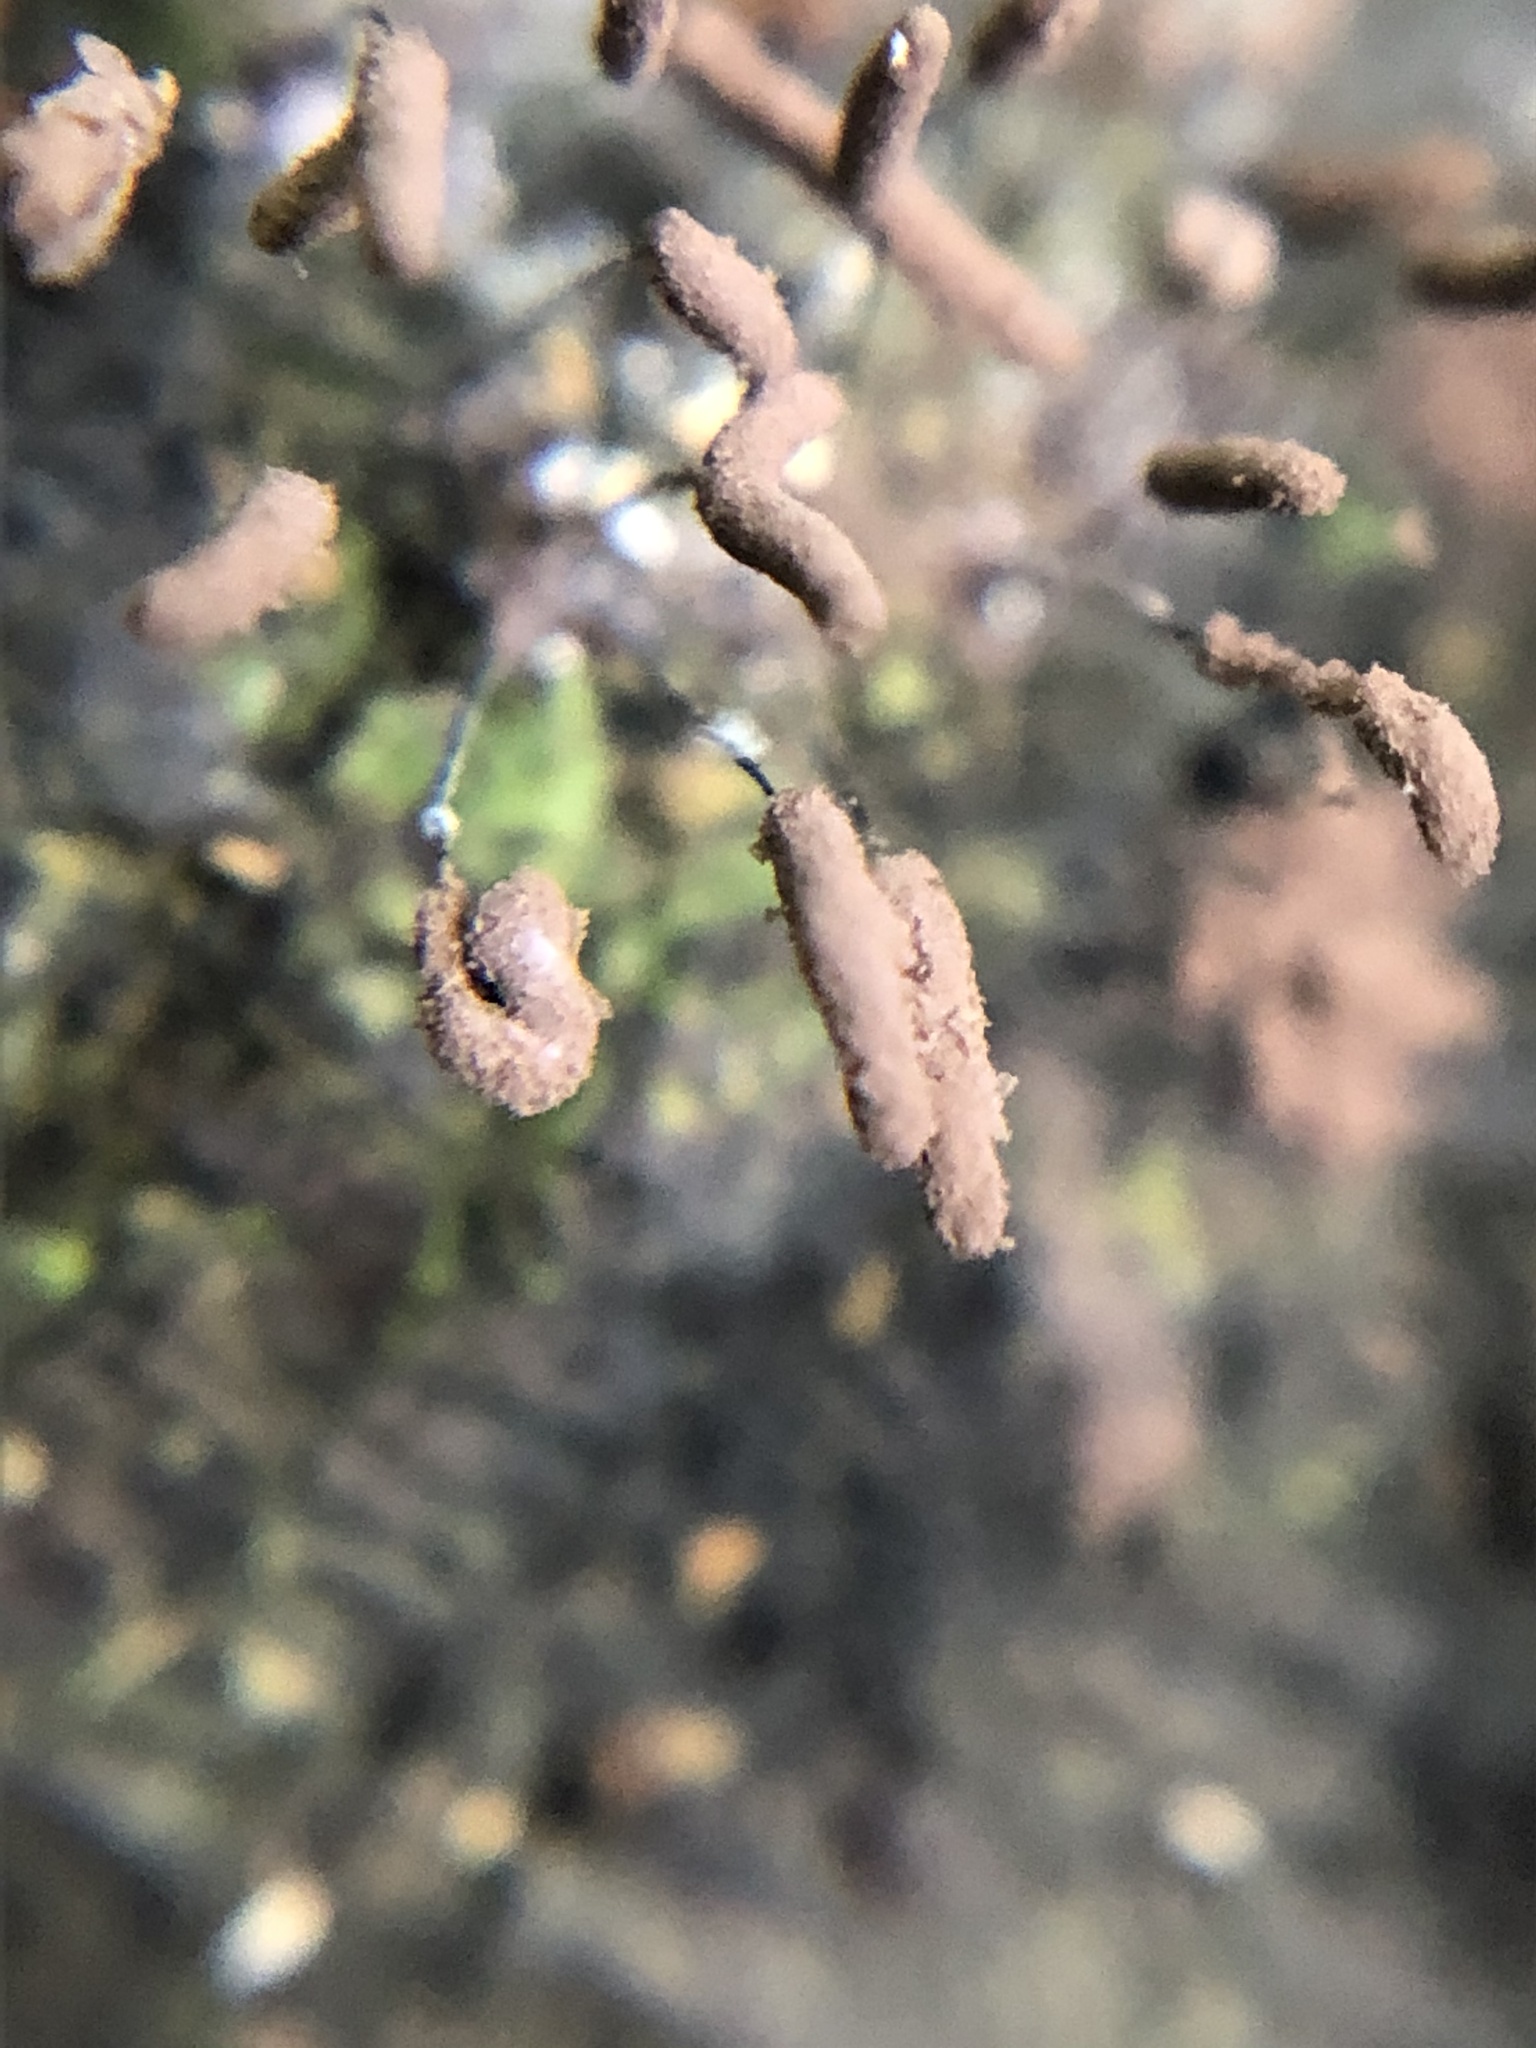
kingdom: Protozoa
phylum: Mycetozoa
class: Myxomycetes
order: Stemonitidales
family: Stemonitidaceae
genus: Stemonitopsis
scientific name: Stemonitopsis typhina
